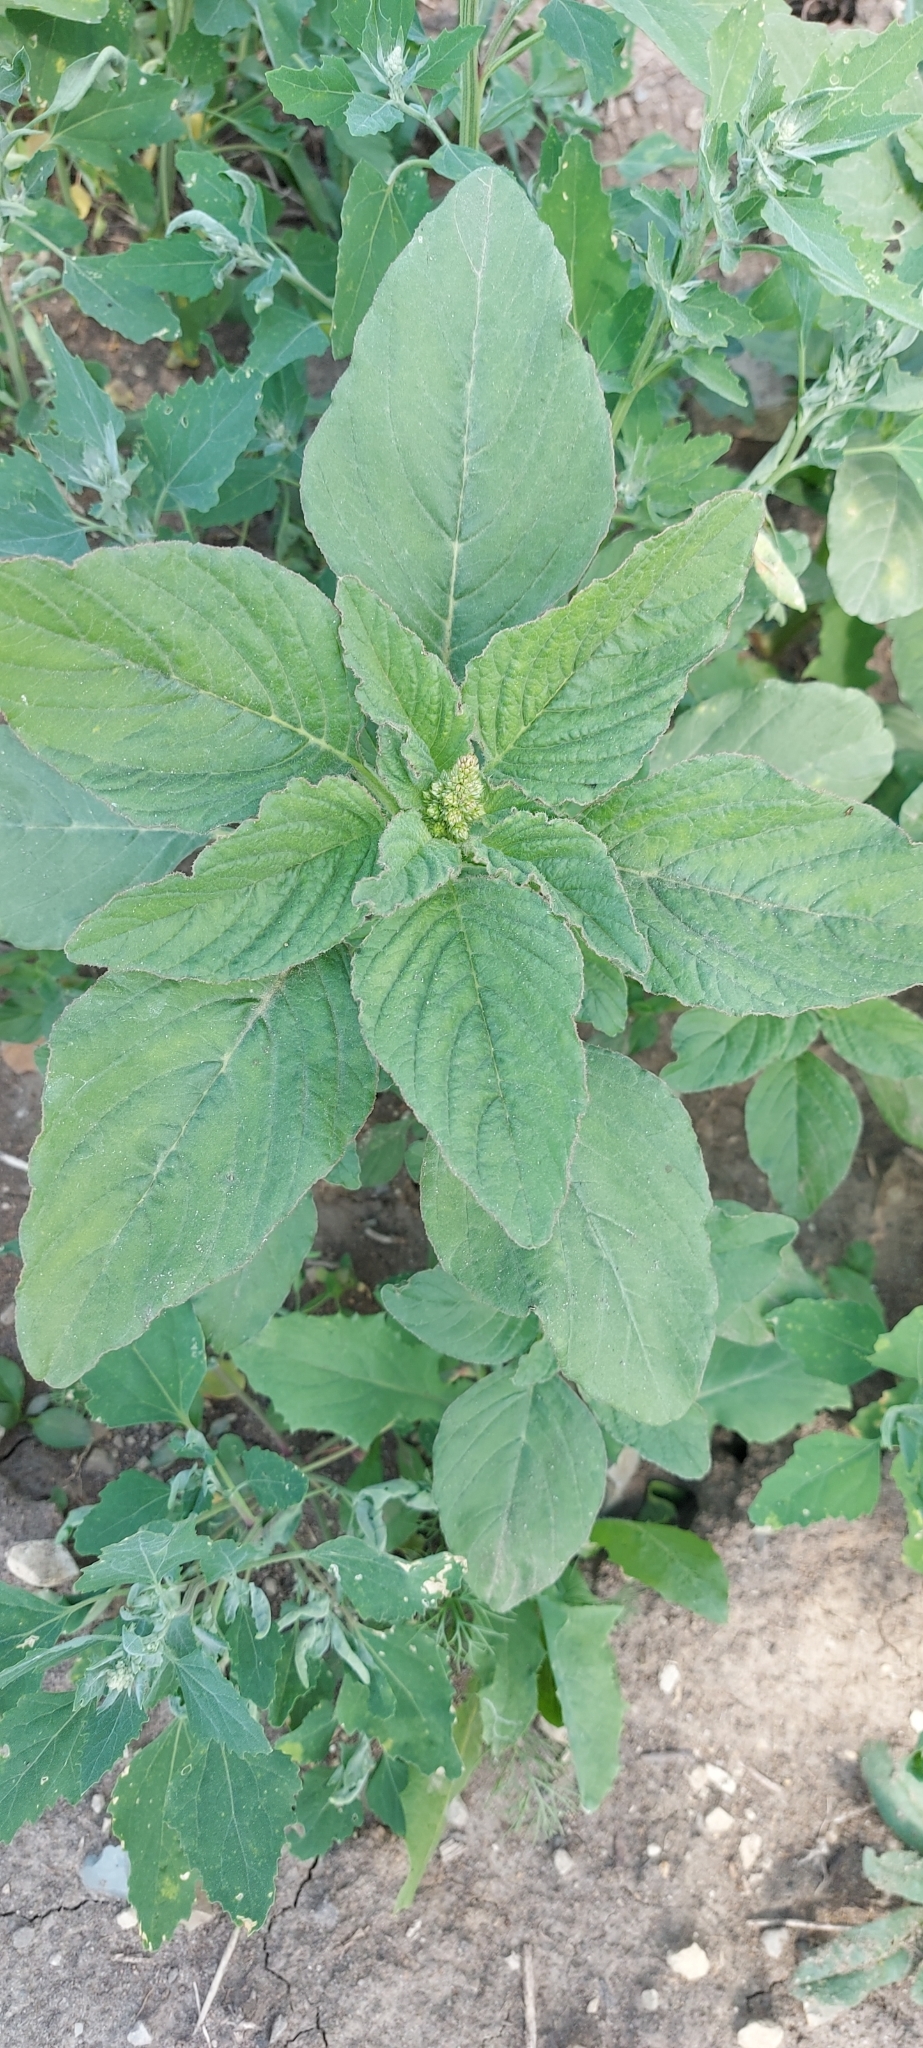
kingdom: Plantae
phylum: Tracheophyta
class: Magnoliopsida
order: Caryophyllales
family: Amaranthaceae
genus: Amaranthus
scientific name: Amaranthus retroflexus
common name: Redroot amaranth
